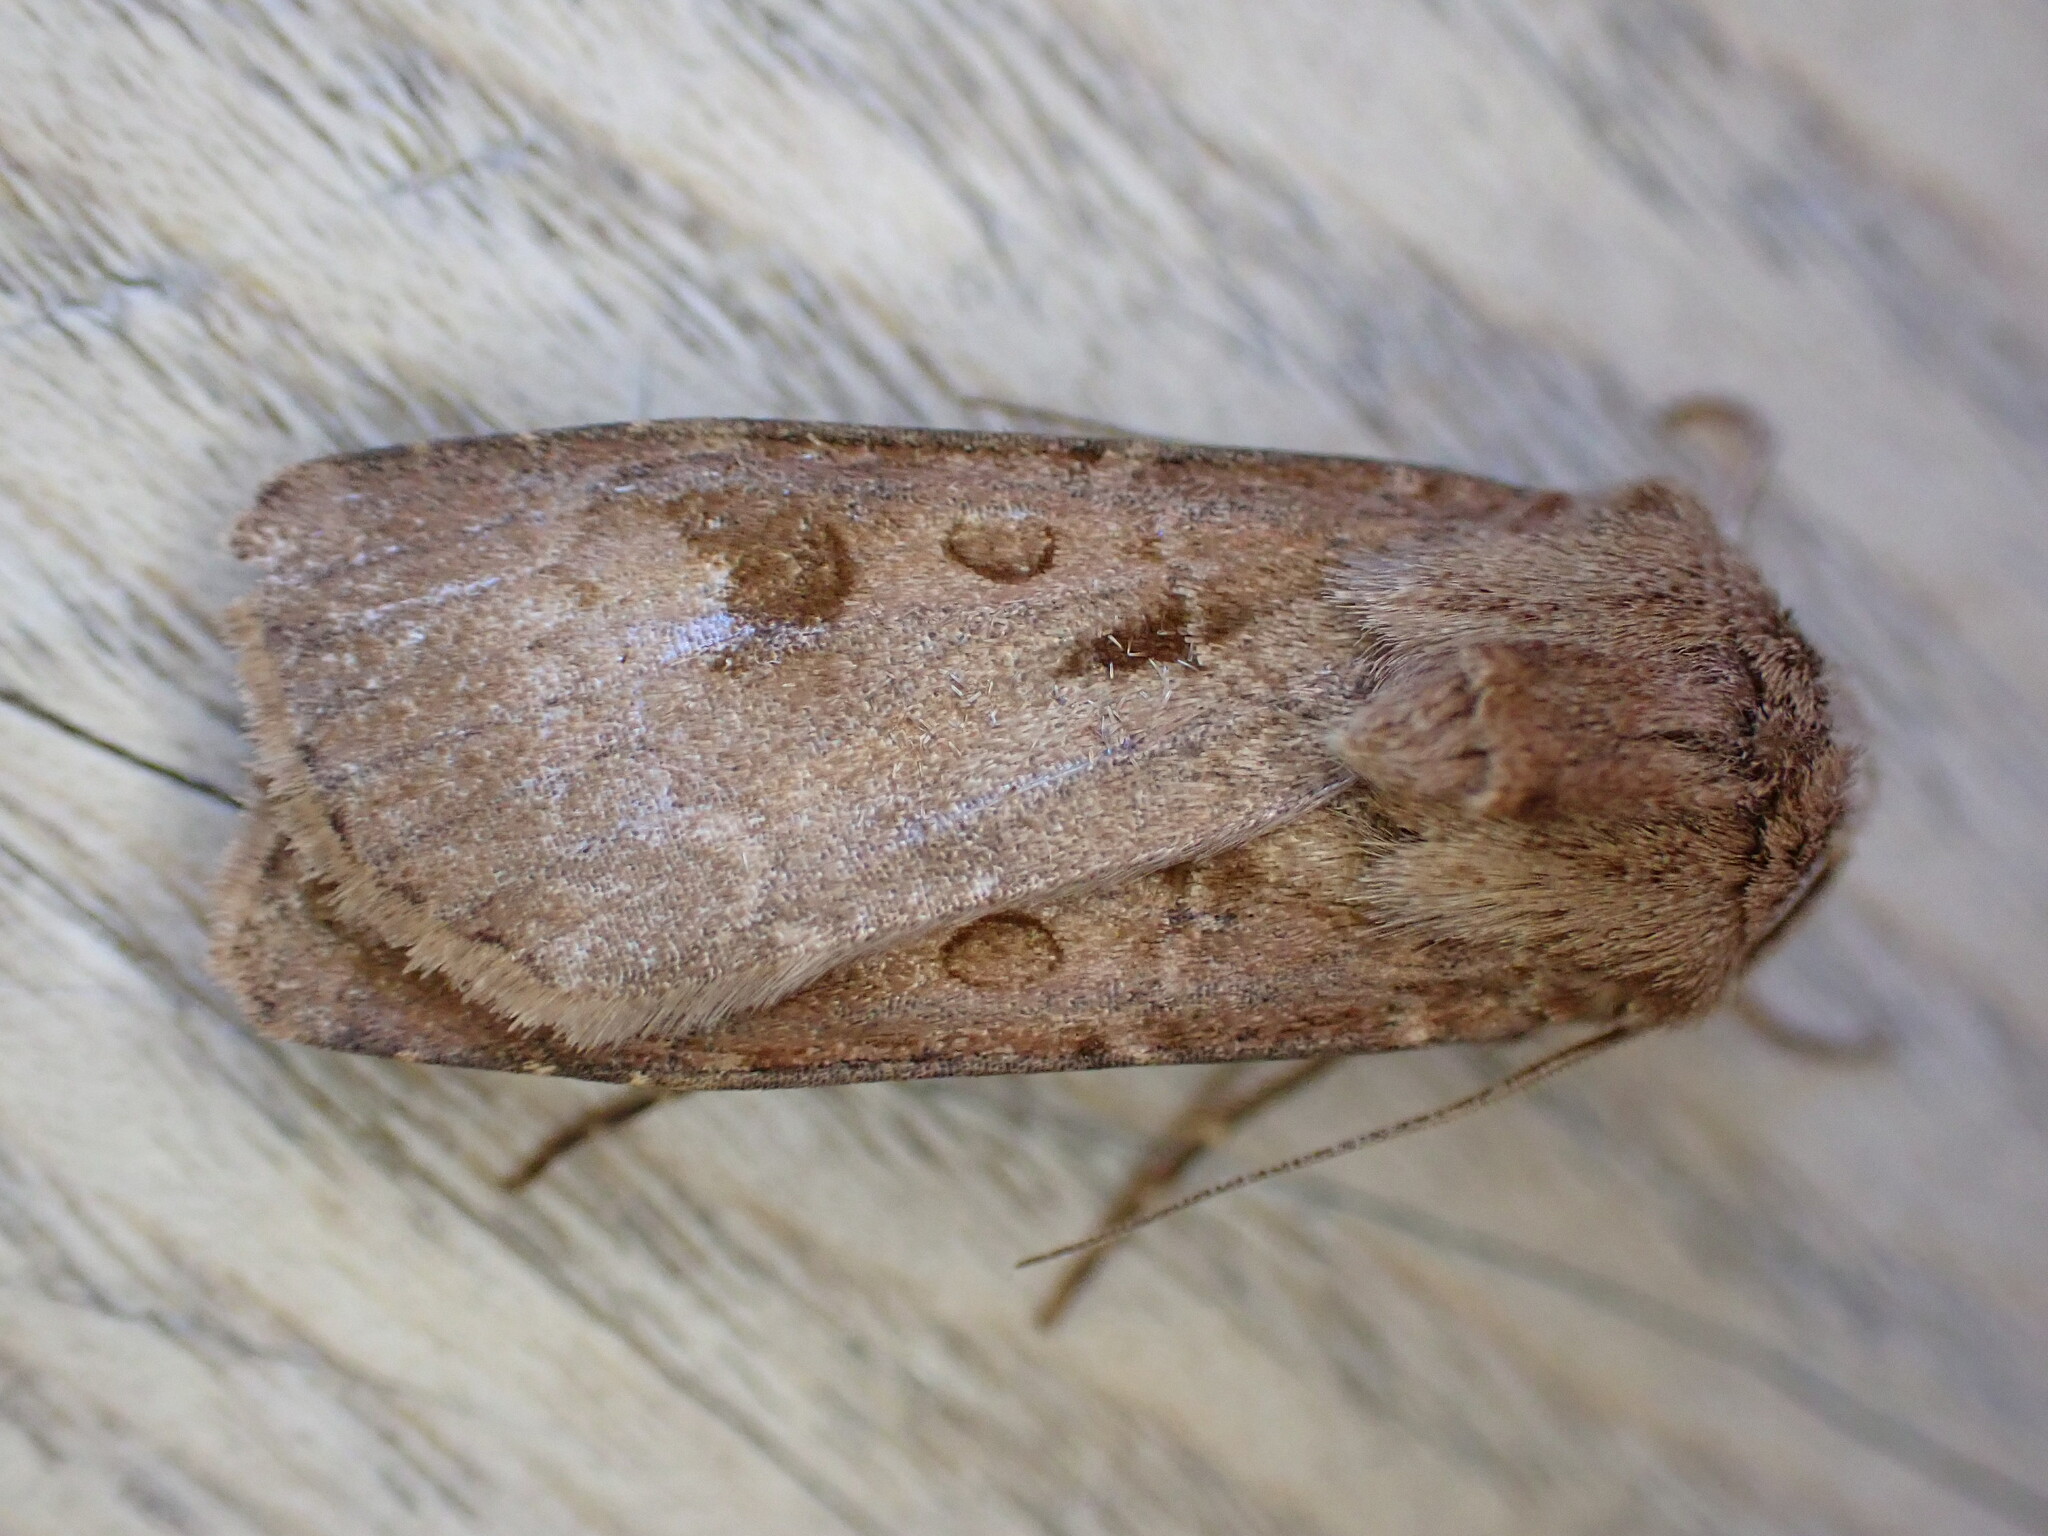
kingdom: Animalia
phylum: Arthropoda
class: Insecta
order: Lepidoptera
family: Noctuidae
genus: Agrotis
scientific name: Agrotis exclamationis
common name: Heart and dart
